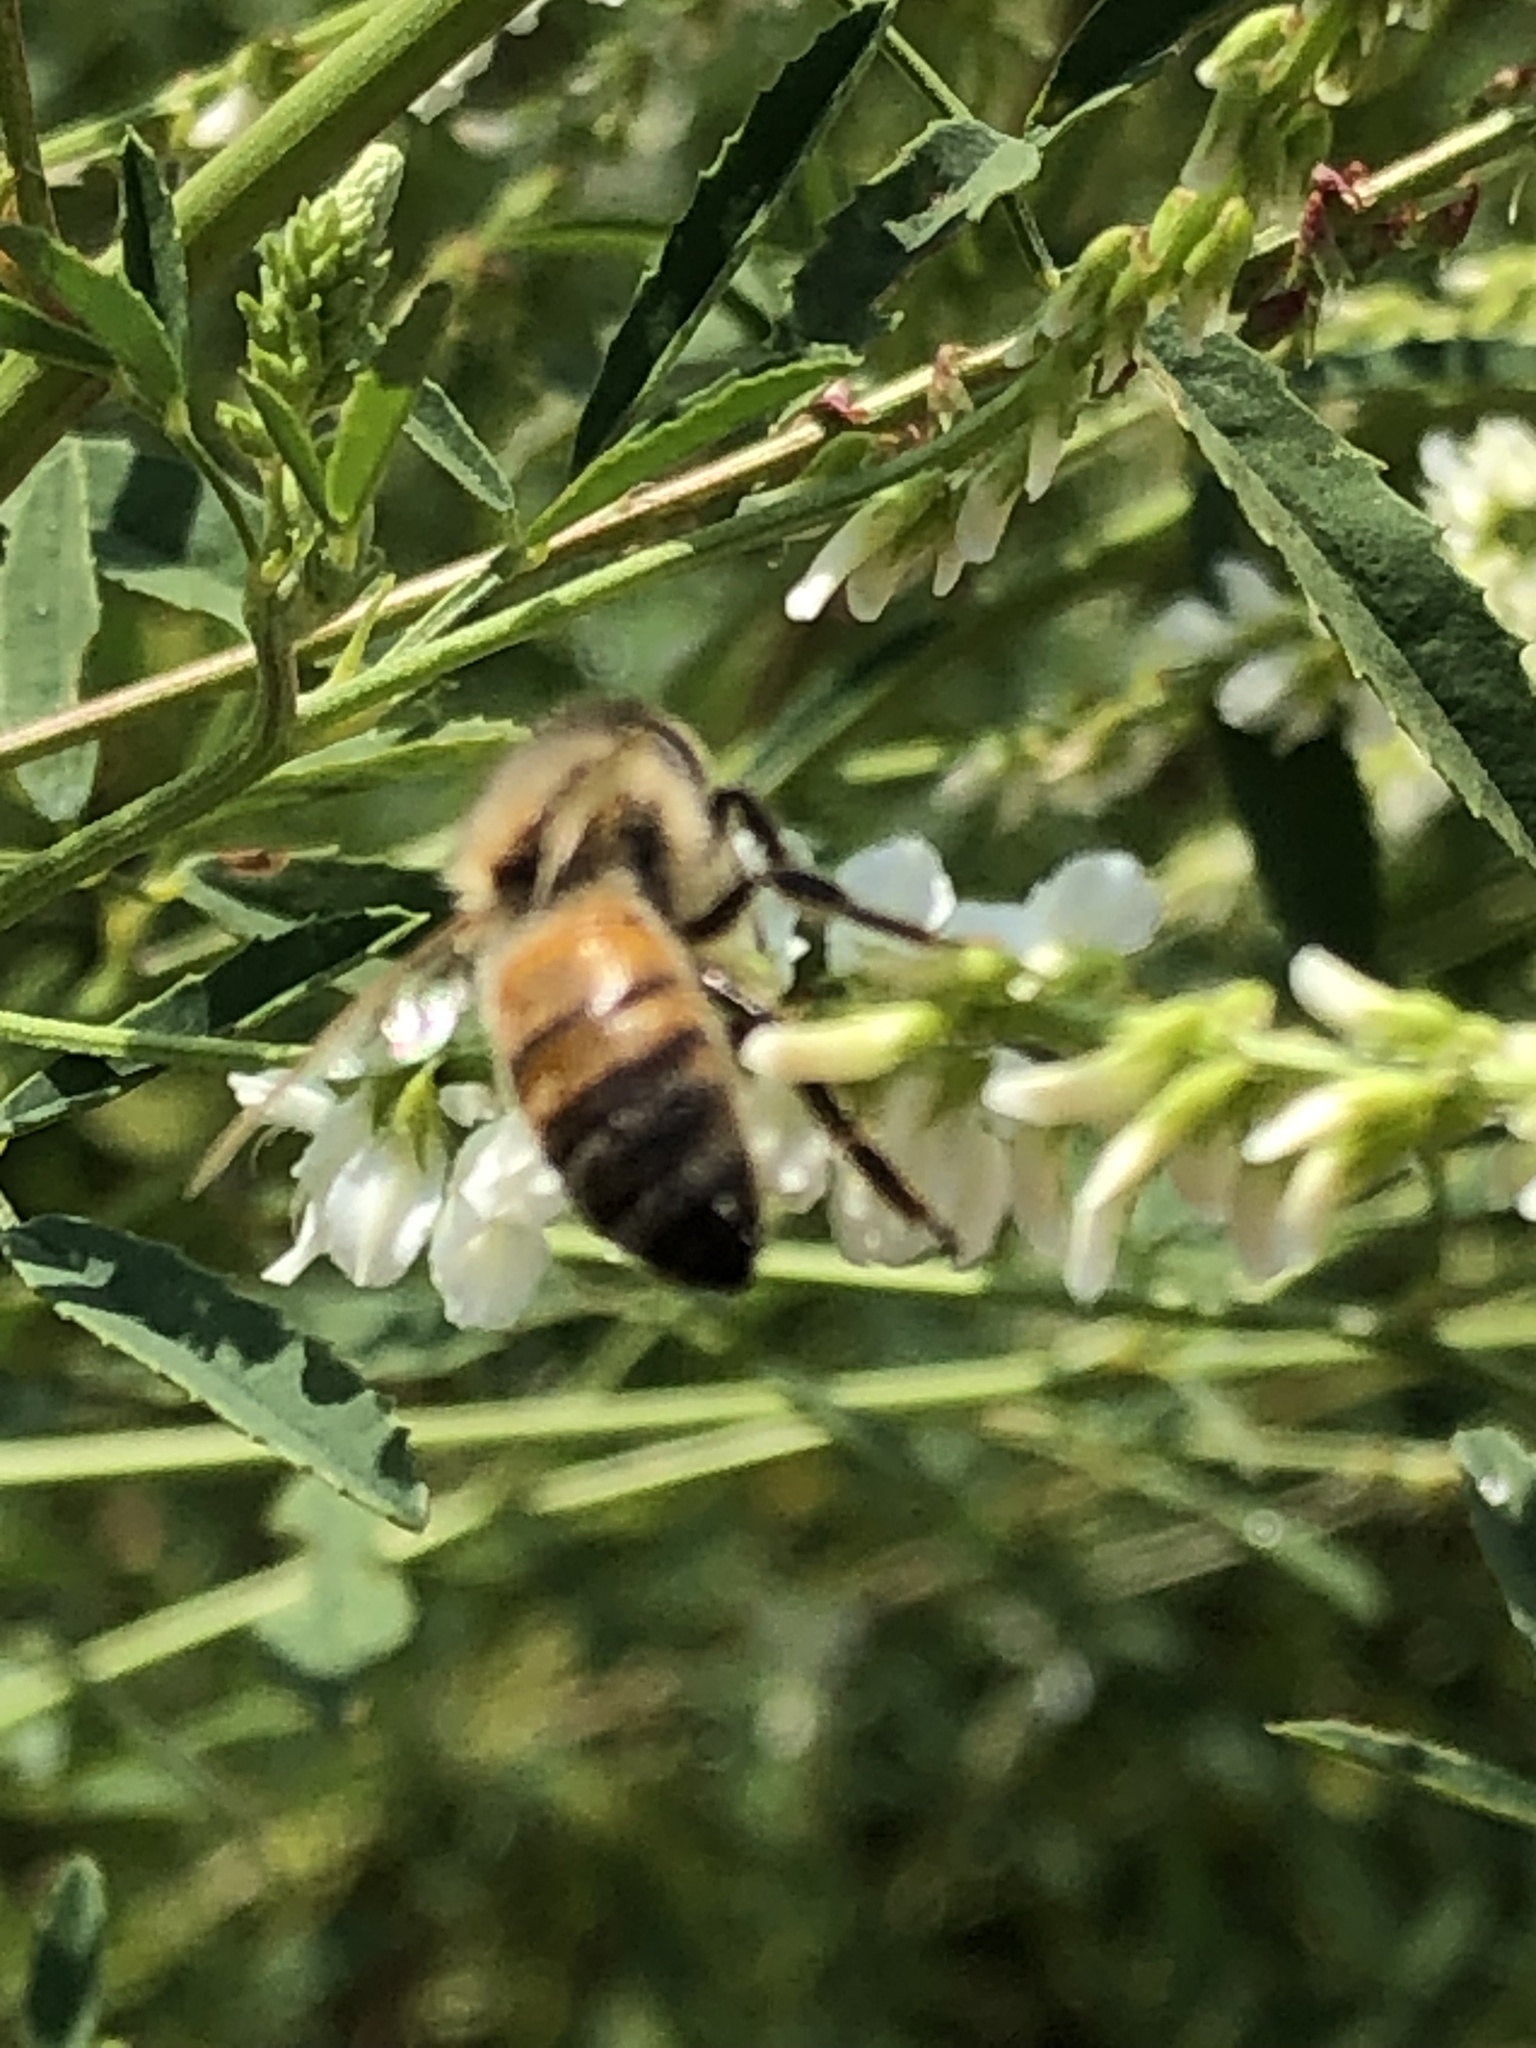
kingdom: Animalia
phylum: Arthropoda
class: Insecta
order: Hymenoptera
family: Apidae
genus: Apis
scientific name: Apis mellifera
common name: Honey bee
